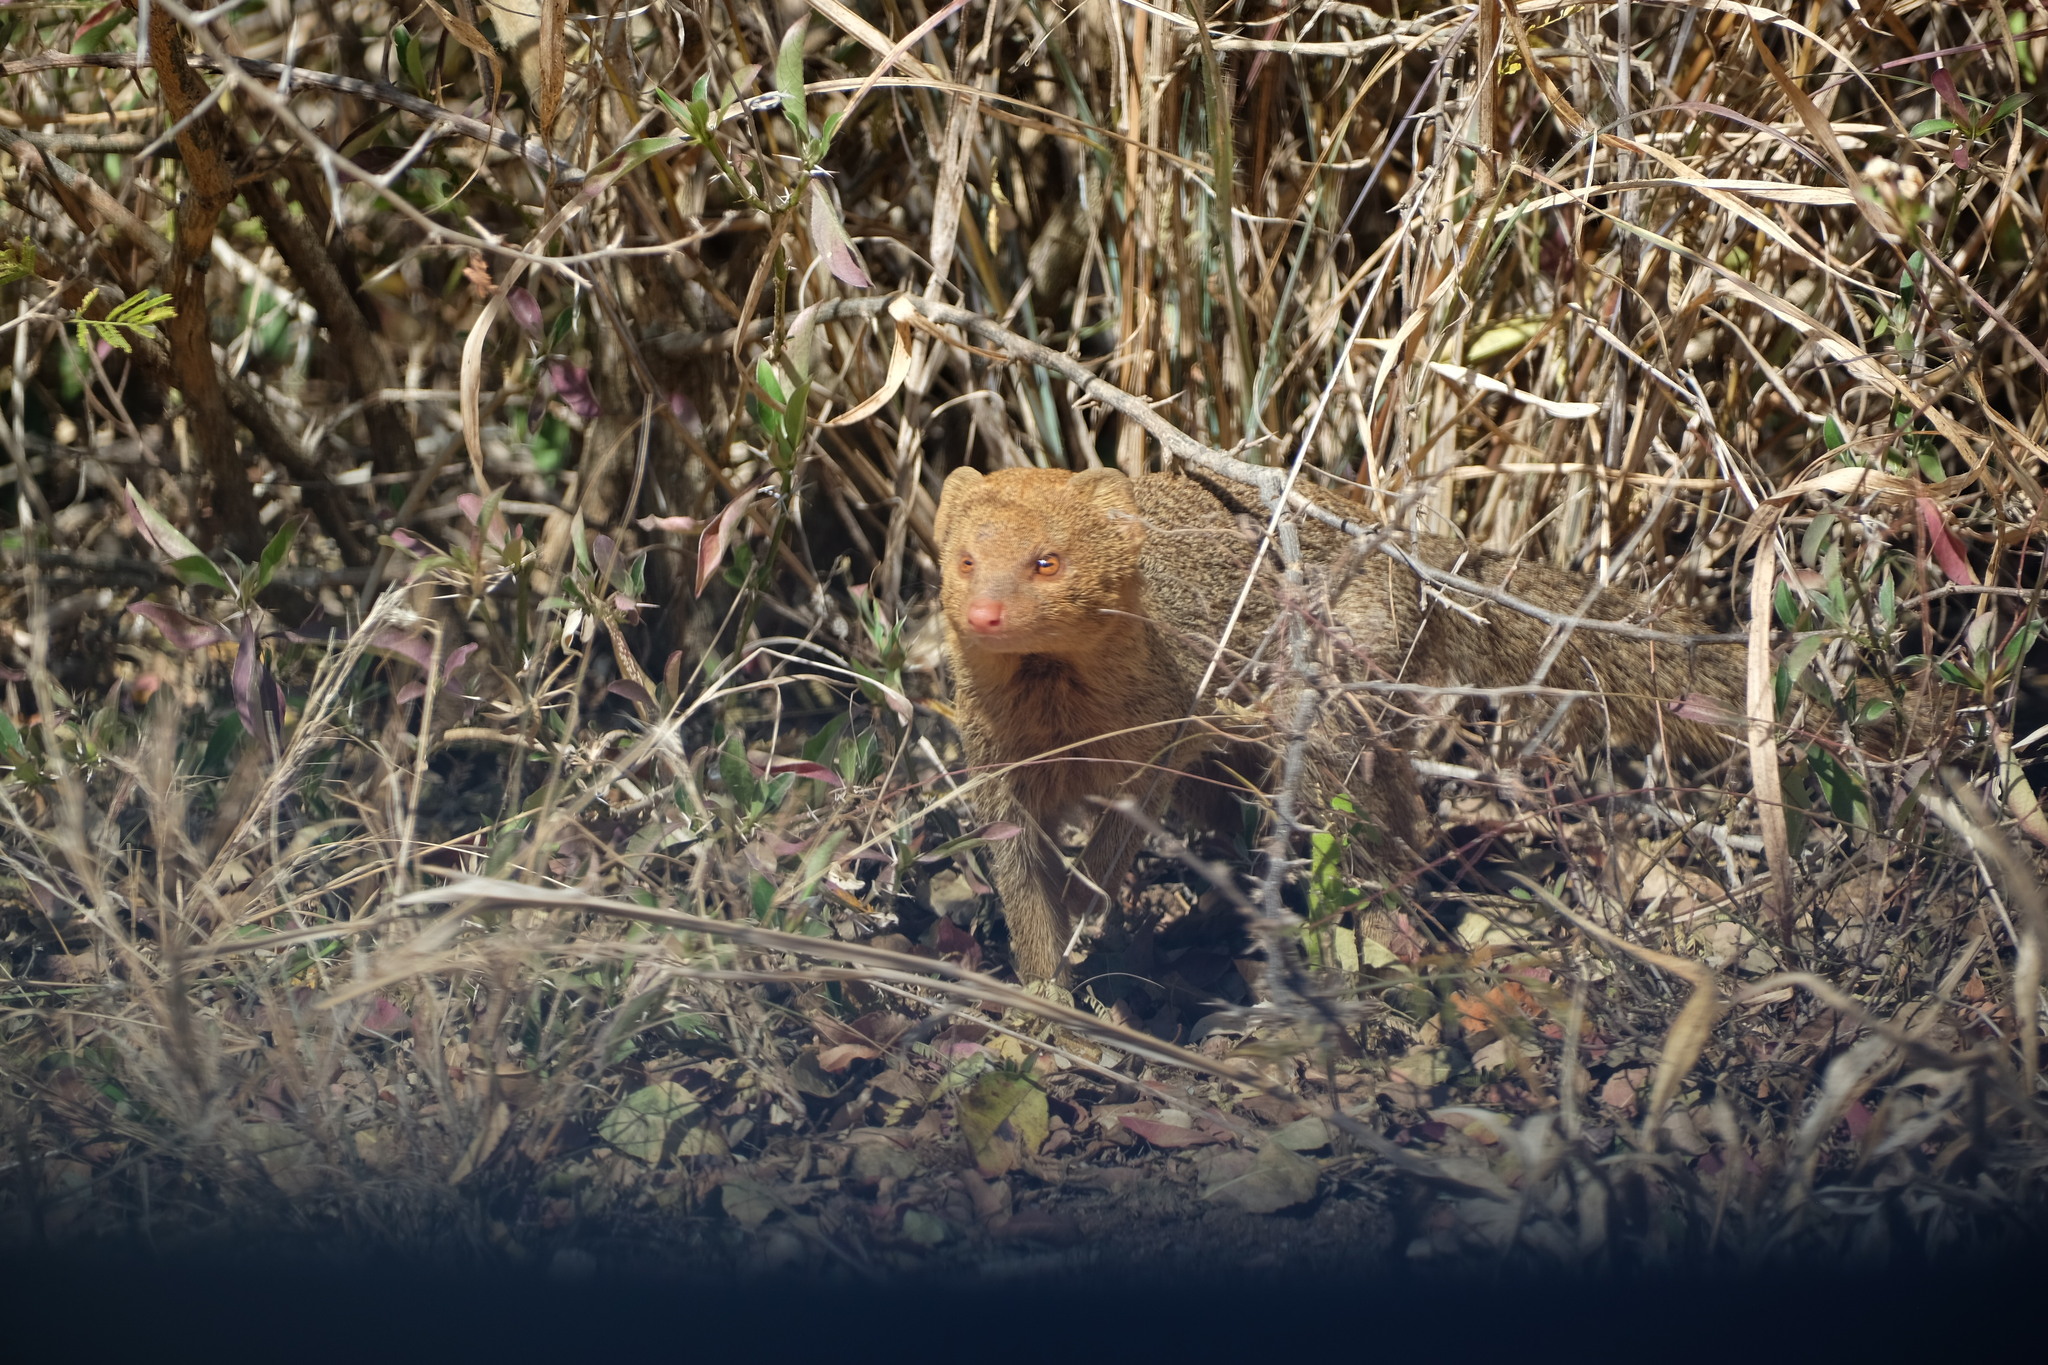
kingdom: Animalia
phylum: Chordata
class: Mammalia
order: Carnivora
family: Herpestidae
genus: Galerella
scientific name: Galerella sanguinea
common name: Slender mongoose
